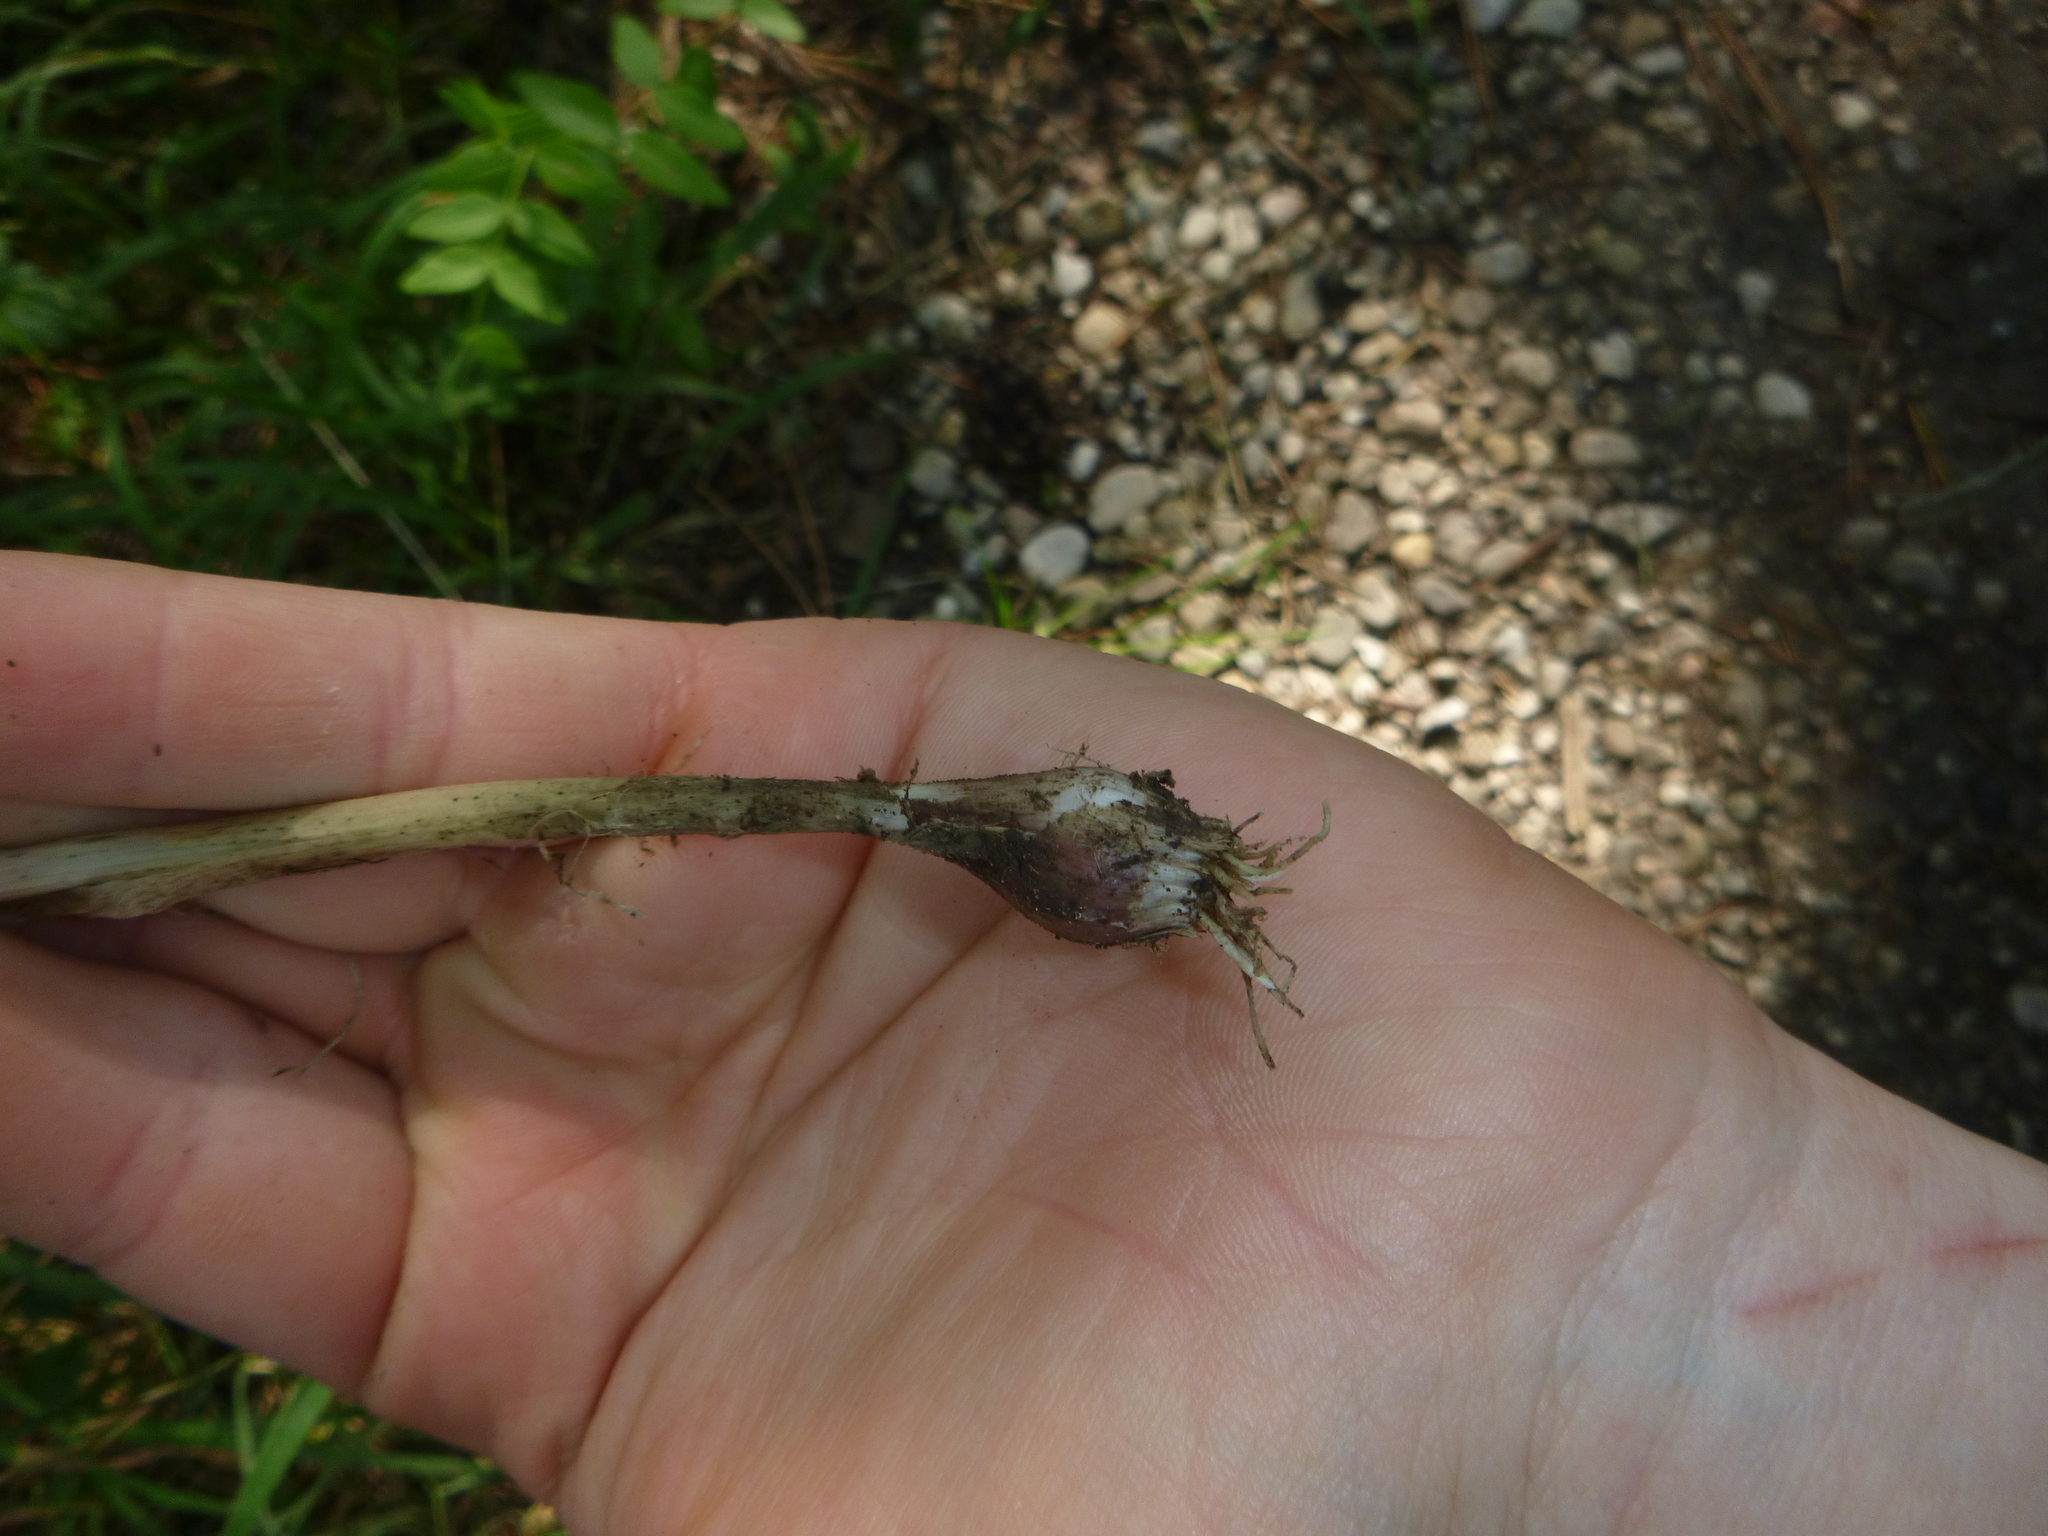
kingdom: Plantae
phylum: Tracheophyta
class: Liliopsida
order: Asparagales
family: Amaryllidaceae
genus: Allium
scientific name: Allium carinatum
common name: Keeled garlic
